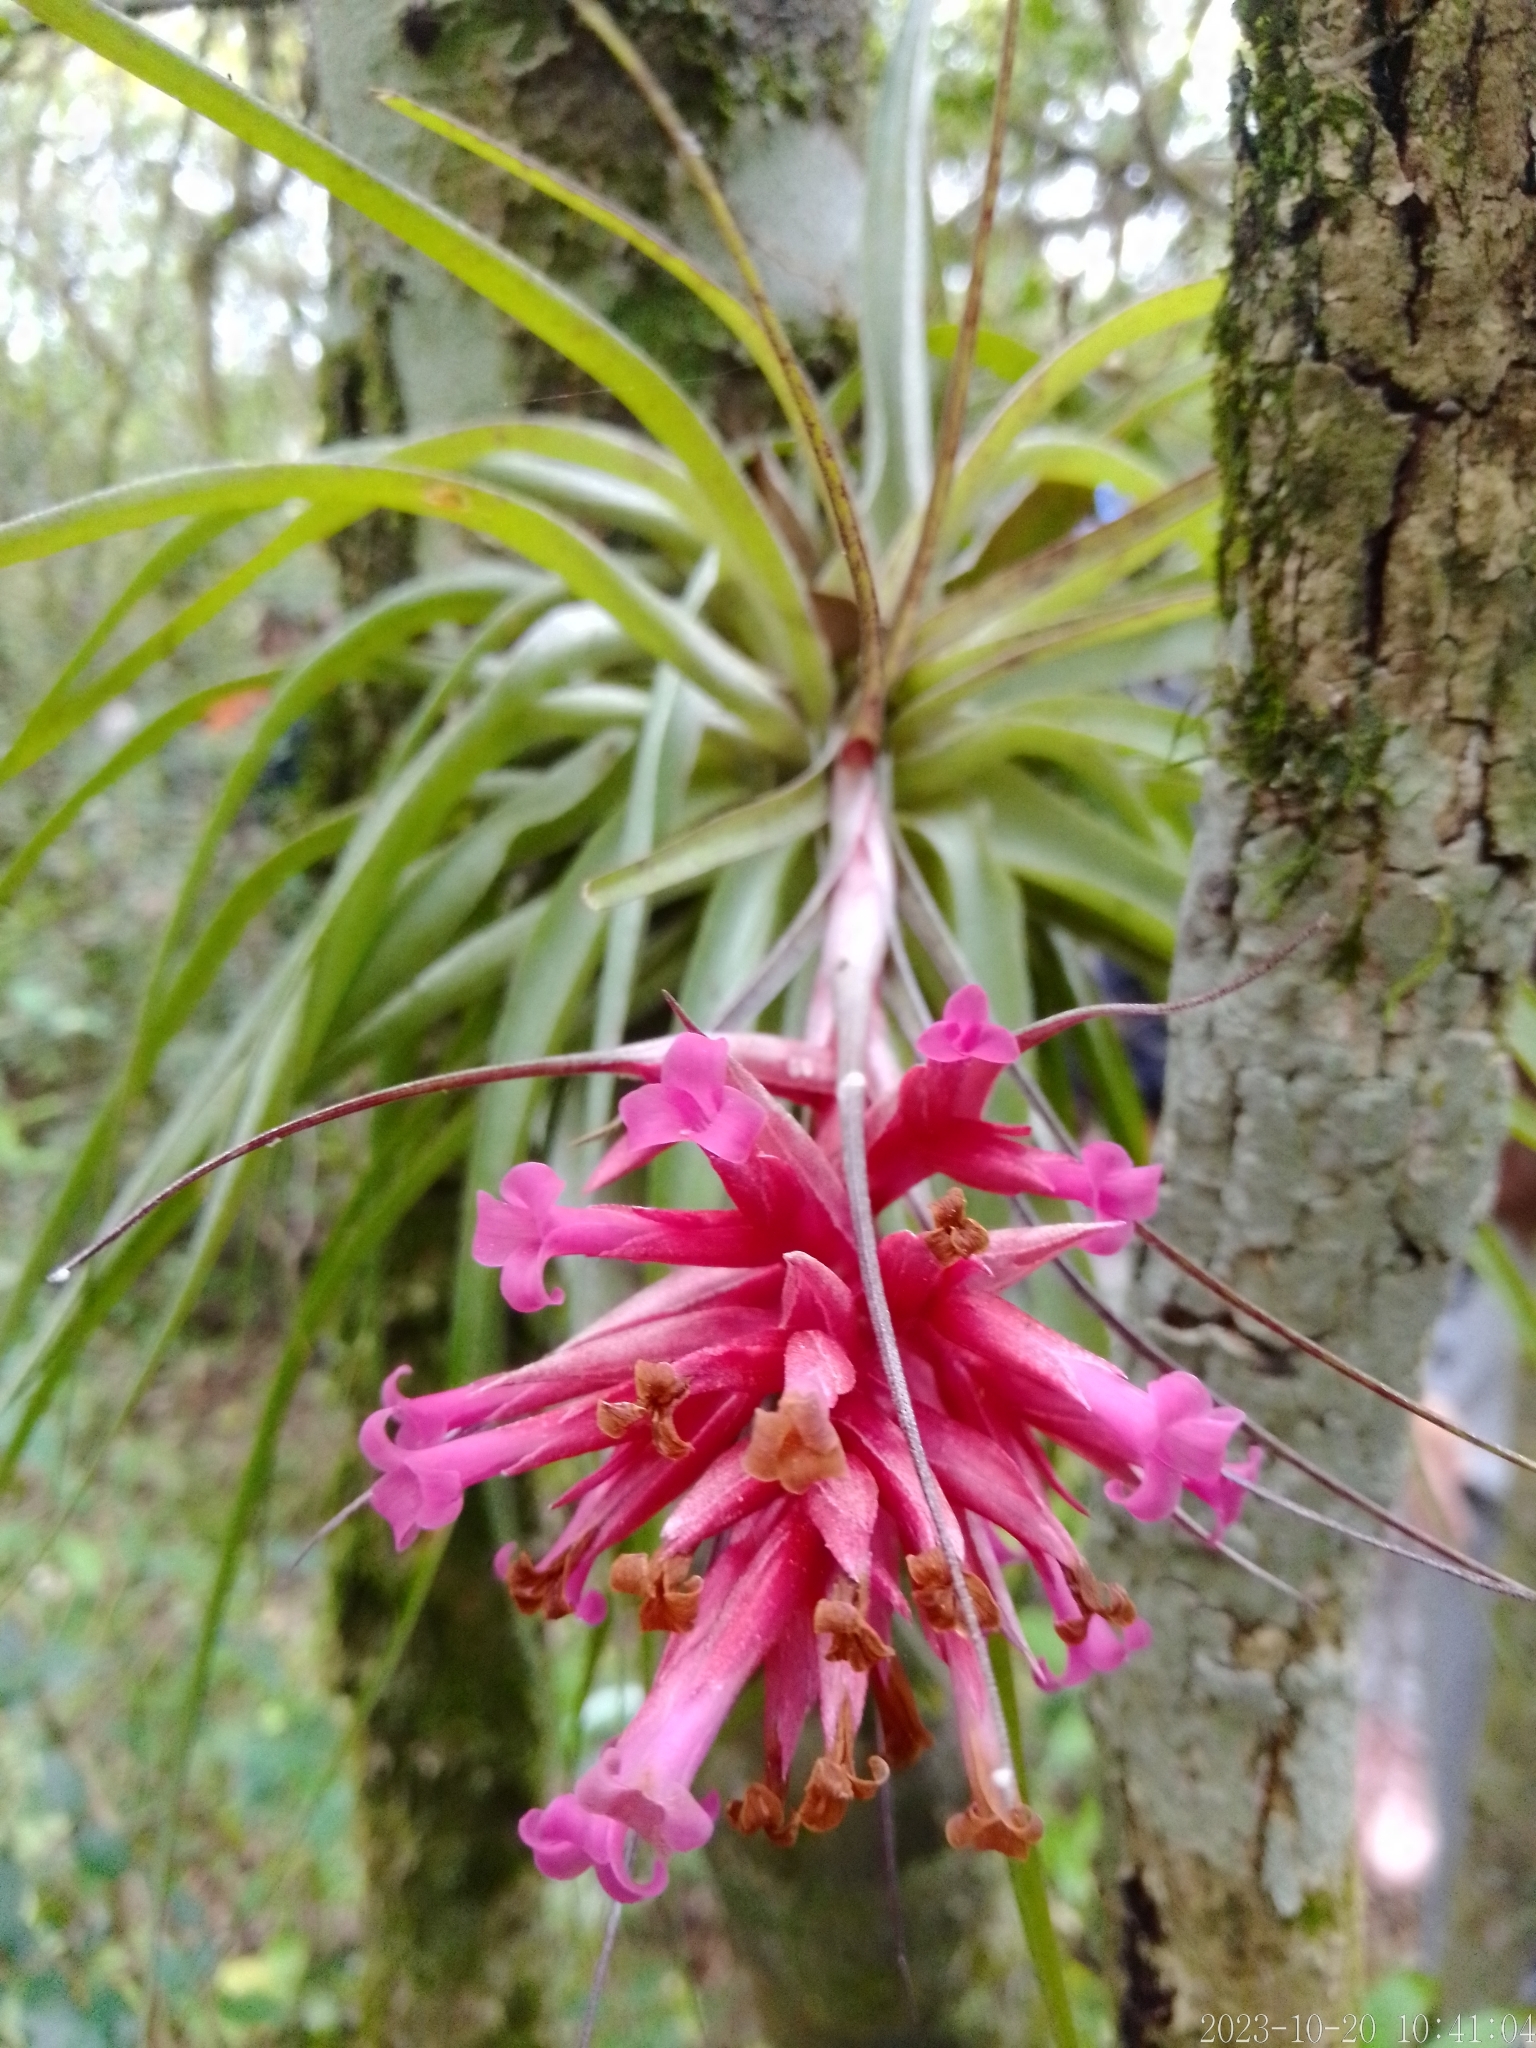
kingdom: Plantae
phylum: Tracheophyta
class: Liliopsida
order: Poales
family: Bromeliaceae
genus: Tillandsia
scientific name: Tillandsia geminiflora
